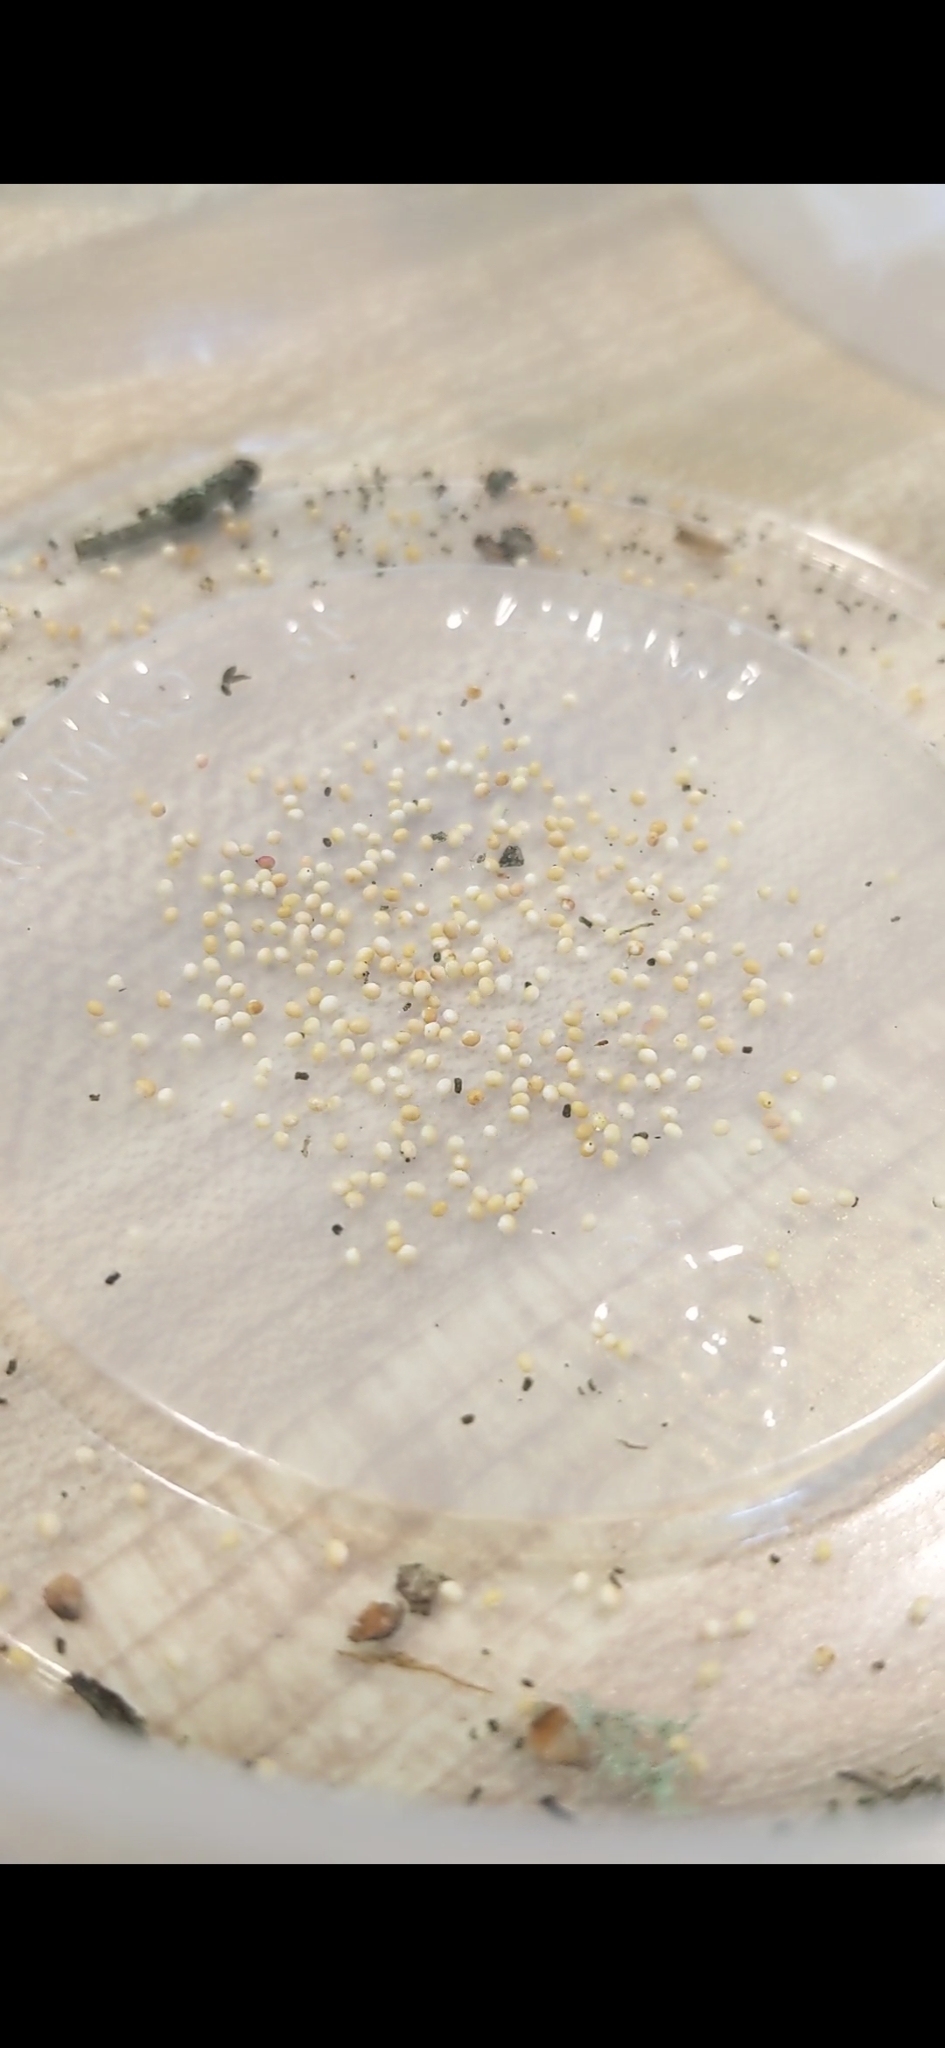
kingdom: Animalia
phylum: Arthropoda
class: Insecta
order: Hymenoptera
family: Cynipidae
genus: Neuroterus
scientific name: Neuroterus saltarius
